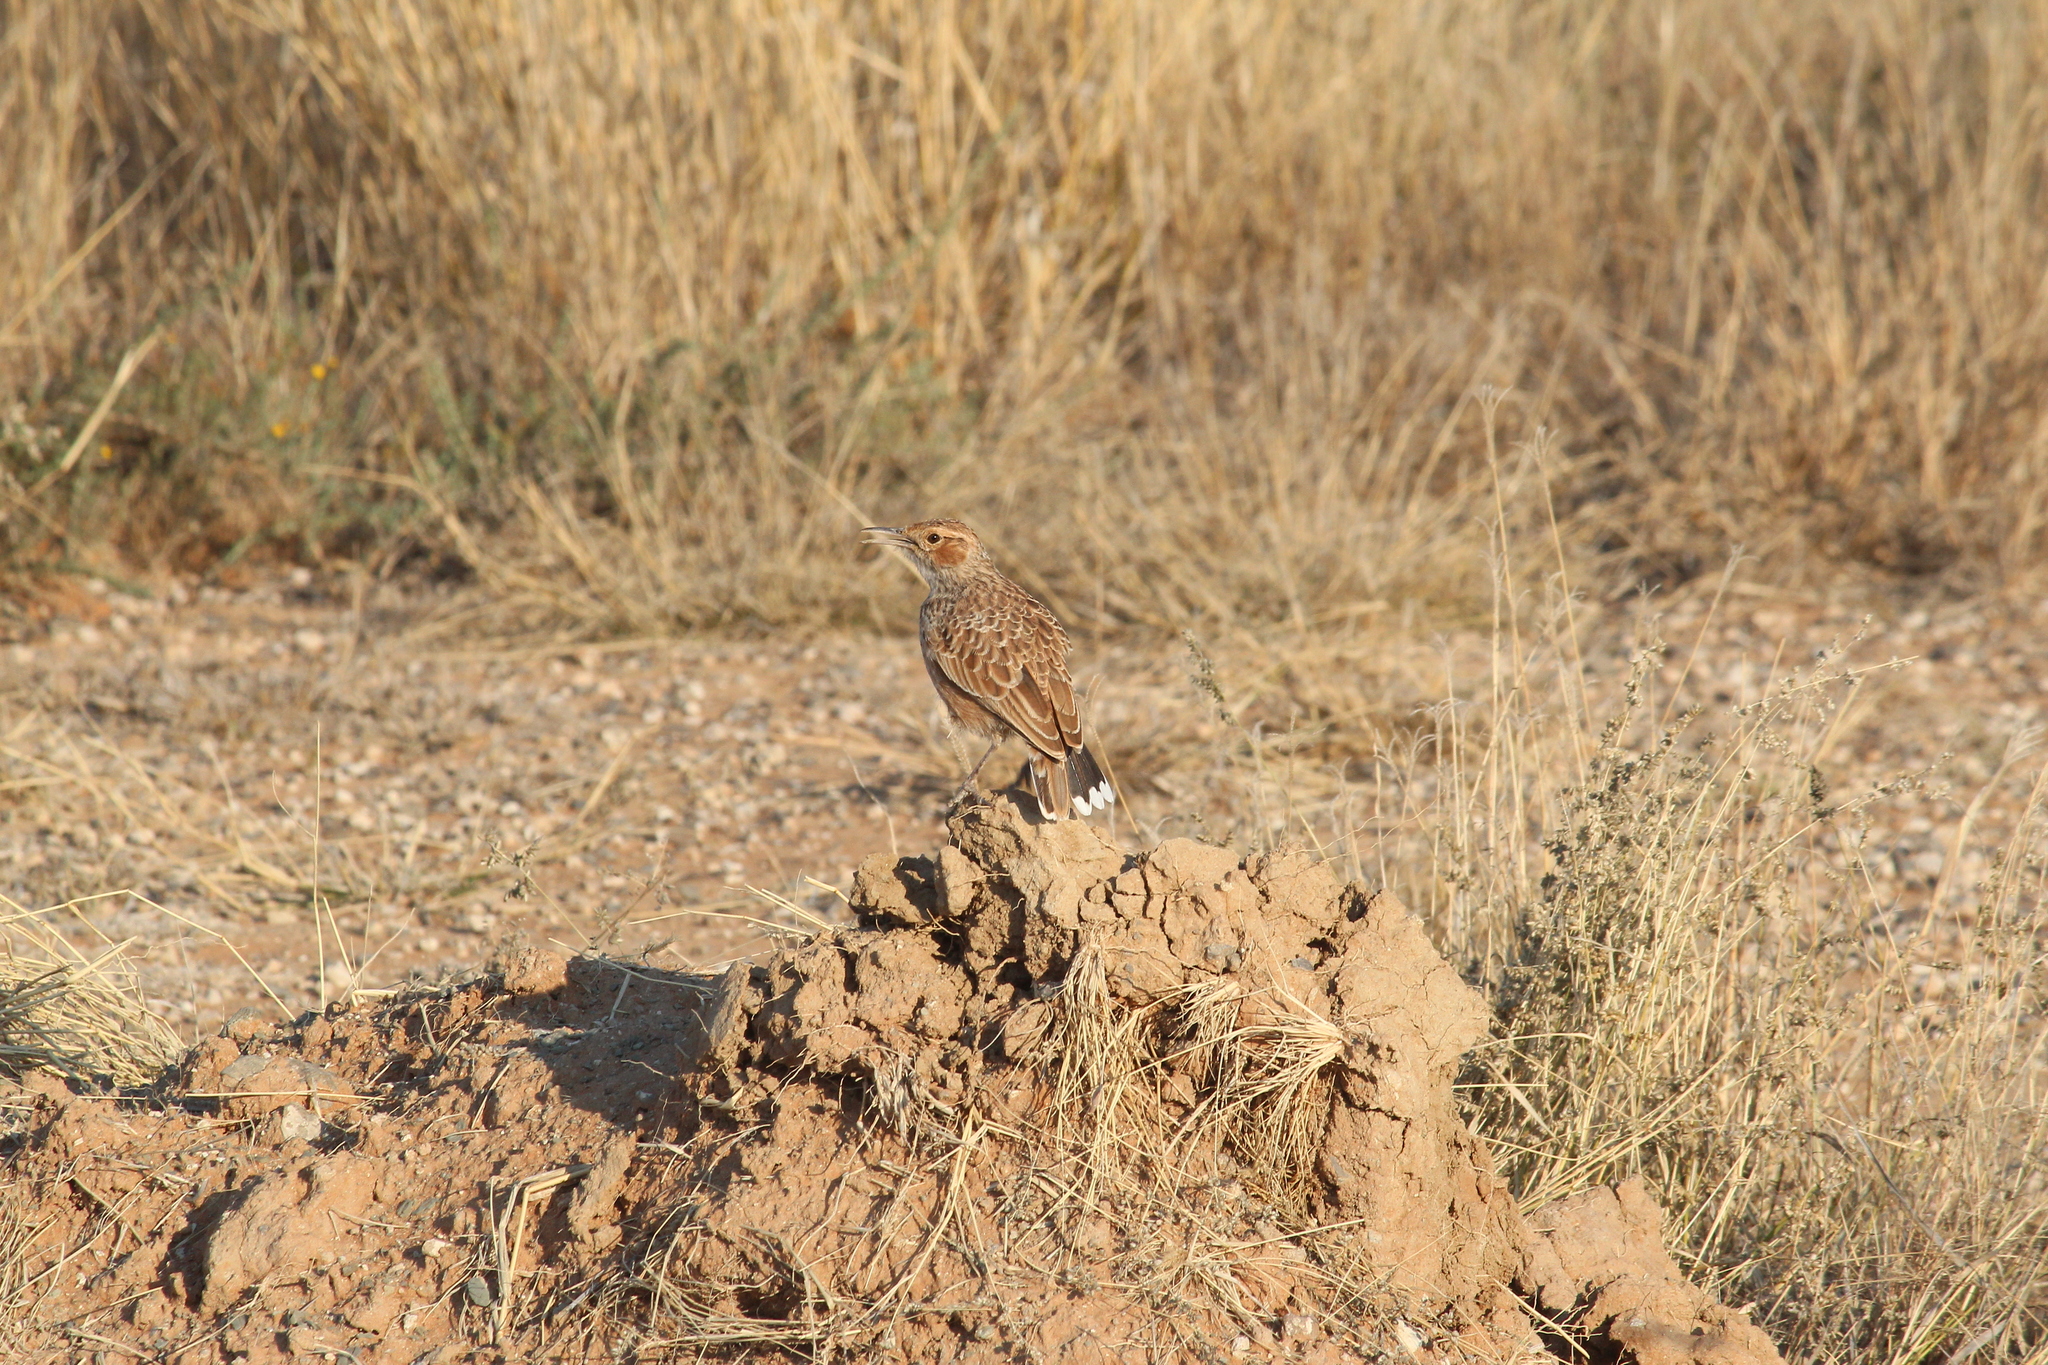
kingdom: Animalia
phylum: Chordata
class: Aves
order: Passeriformes
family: Alaudidae
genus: Chersomanes
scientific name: Chersomanes albofasciata
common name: Spike-heeled lark
